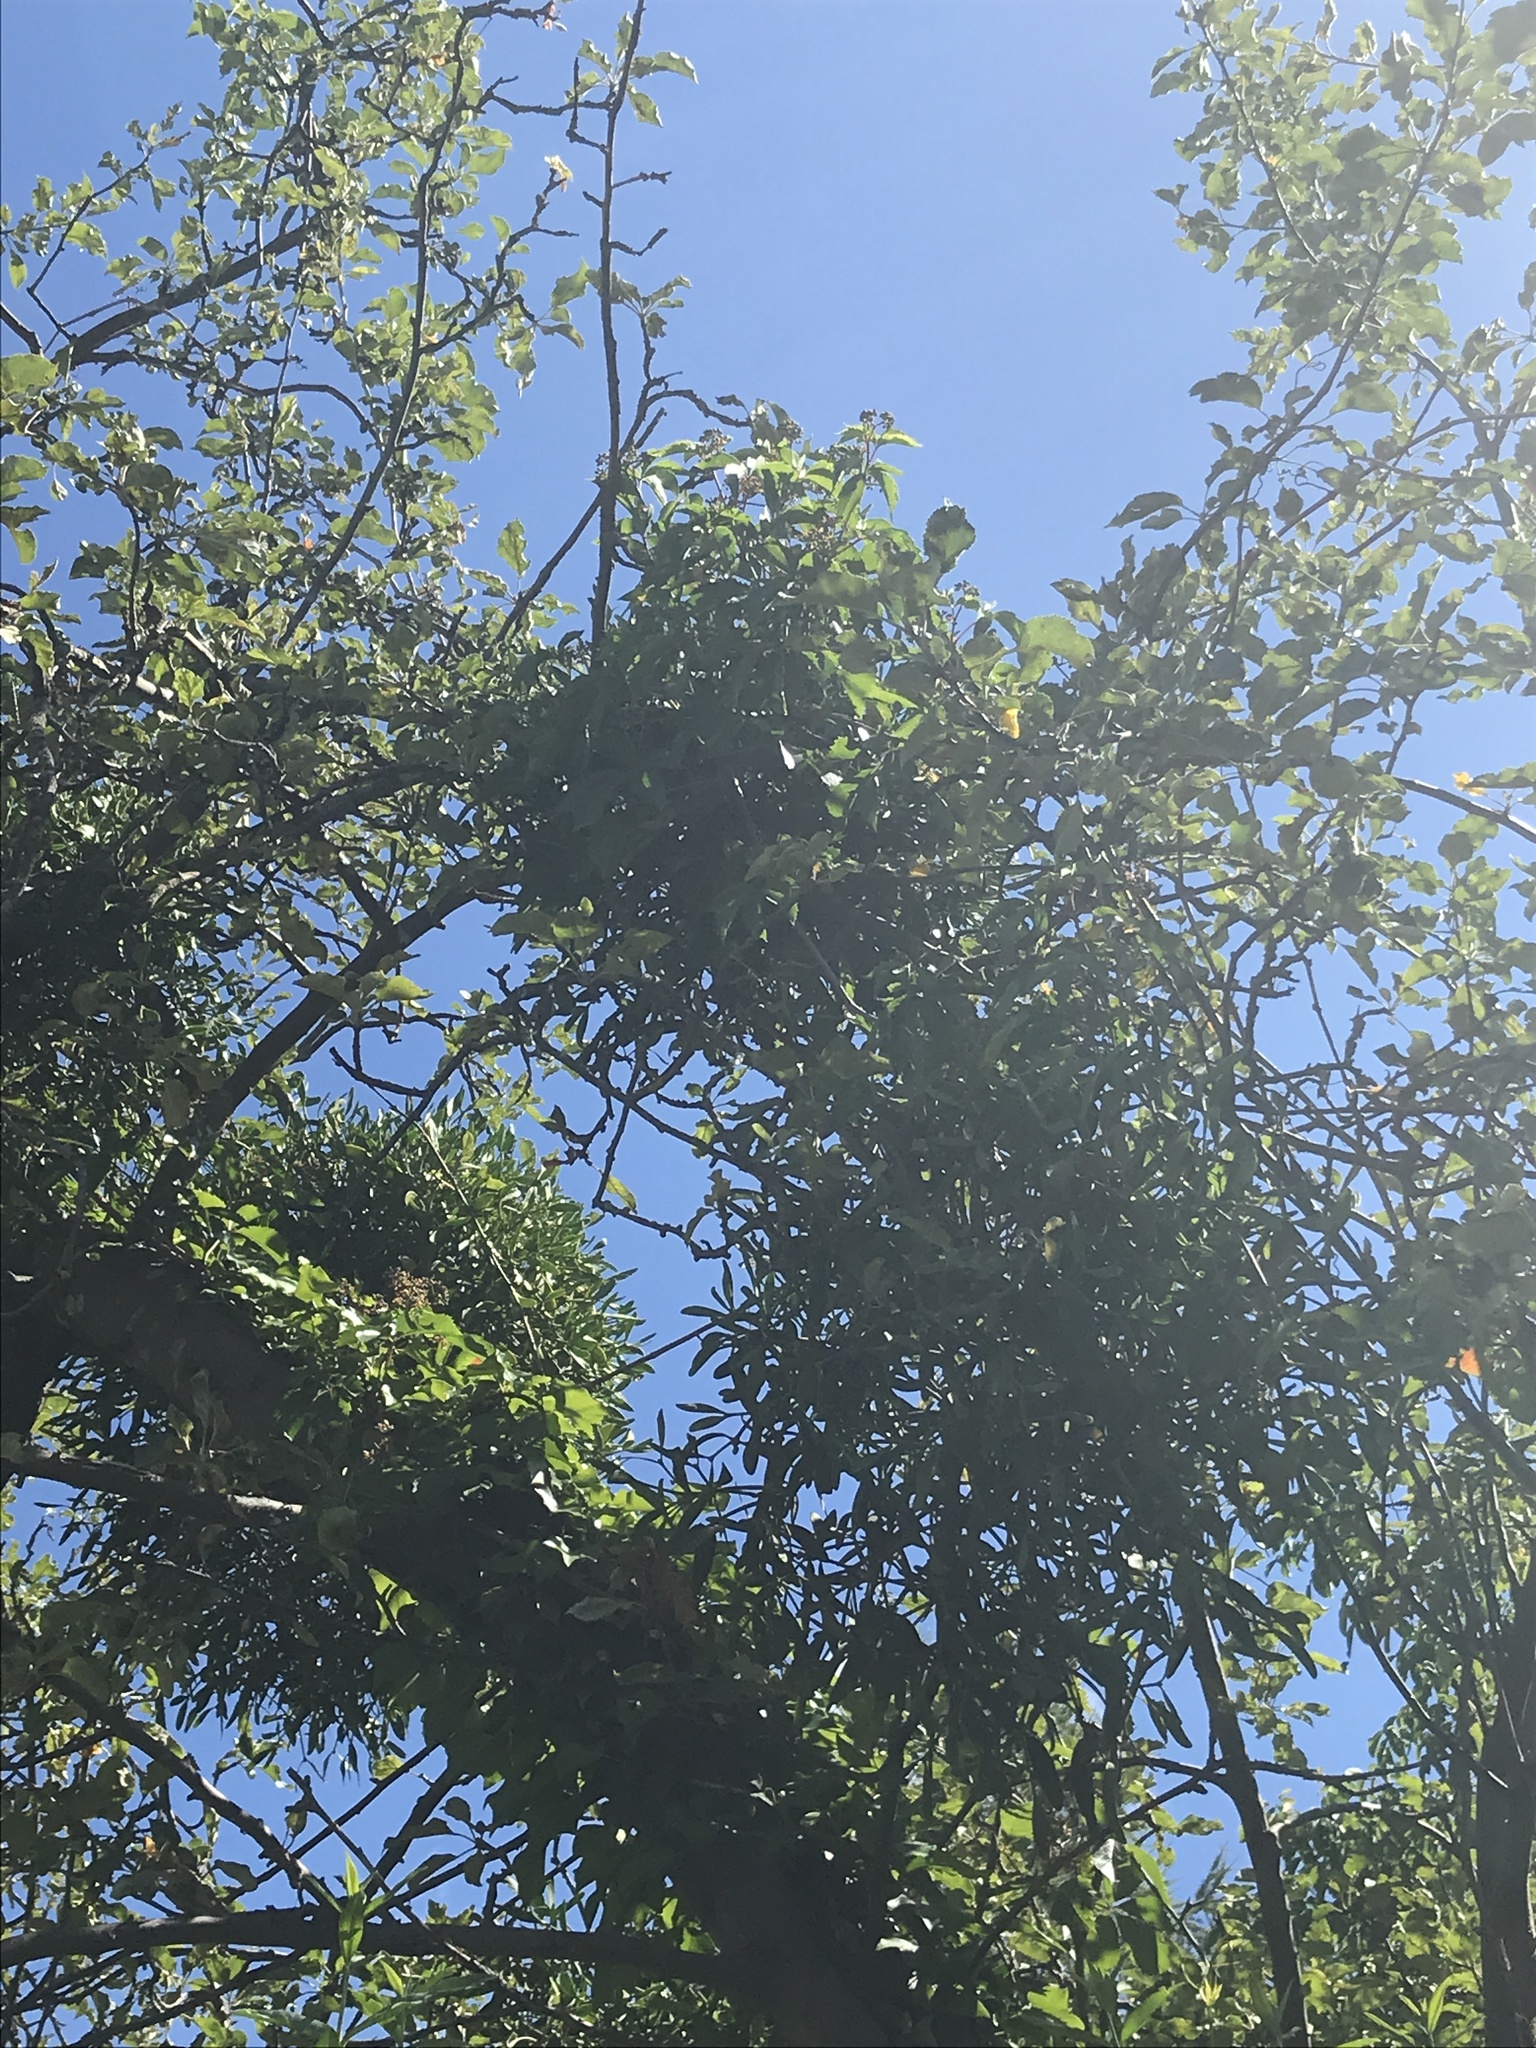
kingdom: Plantae
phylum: Tracheophyta
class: Magnoliopsida
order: Santalales
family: Viscaceae
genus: Viscum
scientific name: Viscum album
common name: Mistletoe
